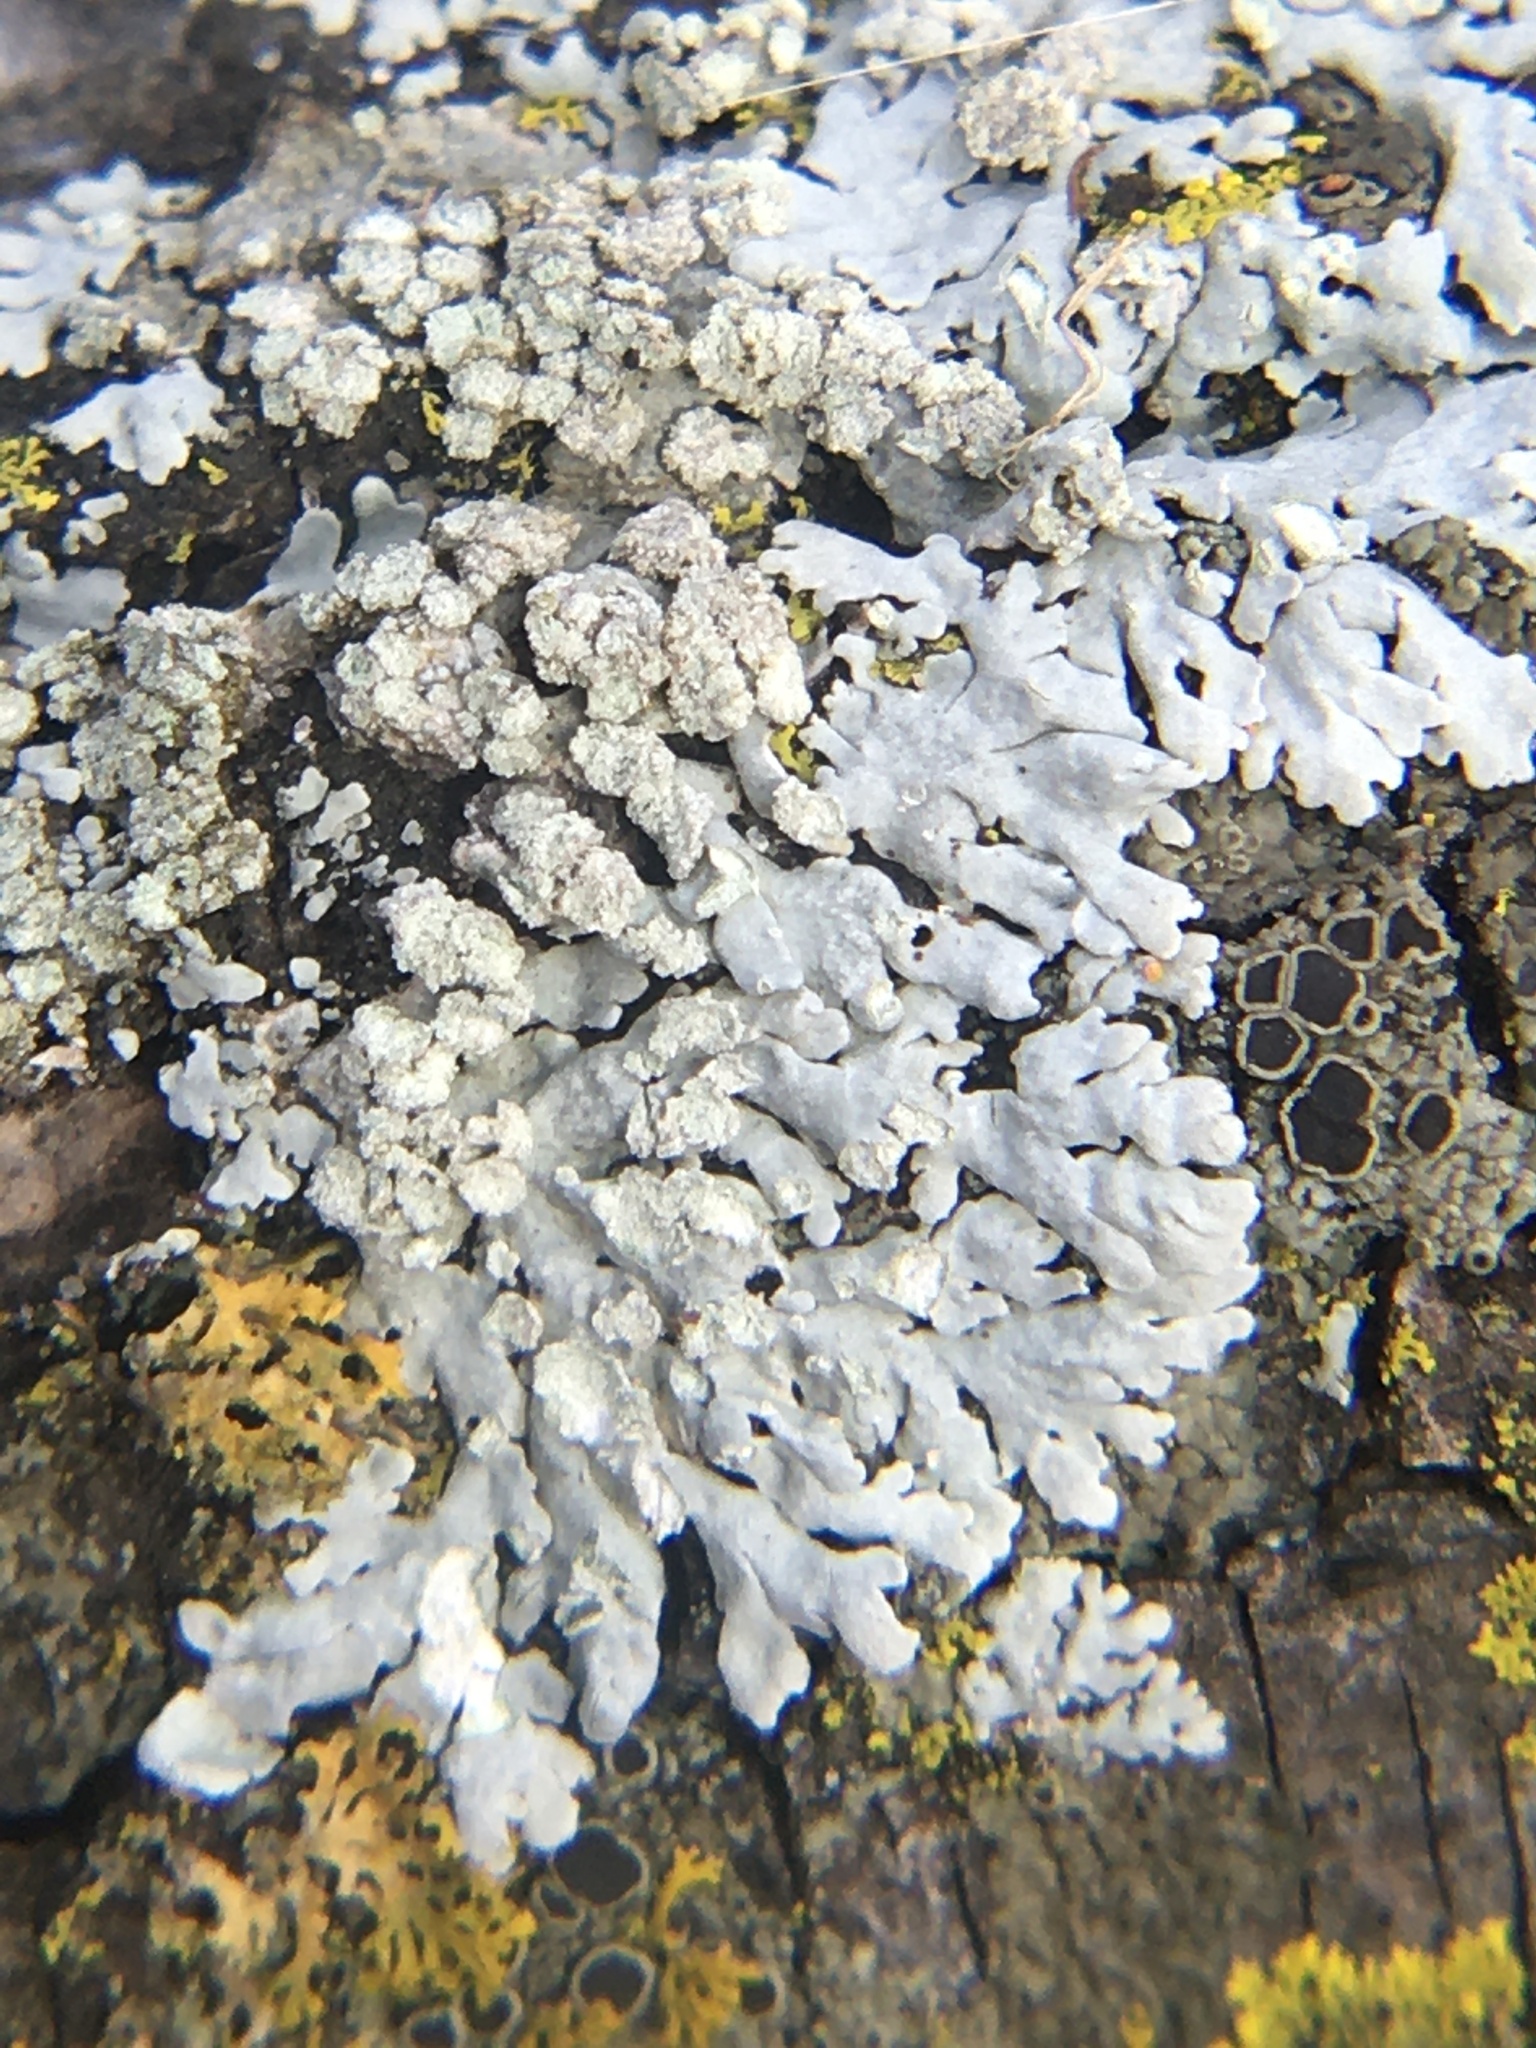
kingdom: Fungi
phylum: Ascomycota
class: Lecanoromycetes
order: Caliciales
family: Physciaceae
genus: Physcia
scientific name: Physcia americana
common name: American rosette lichen
